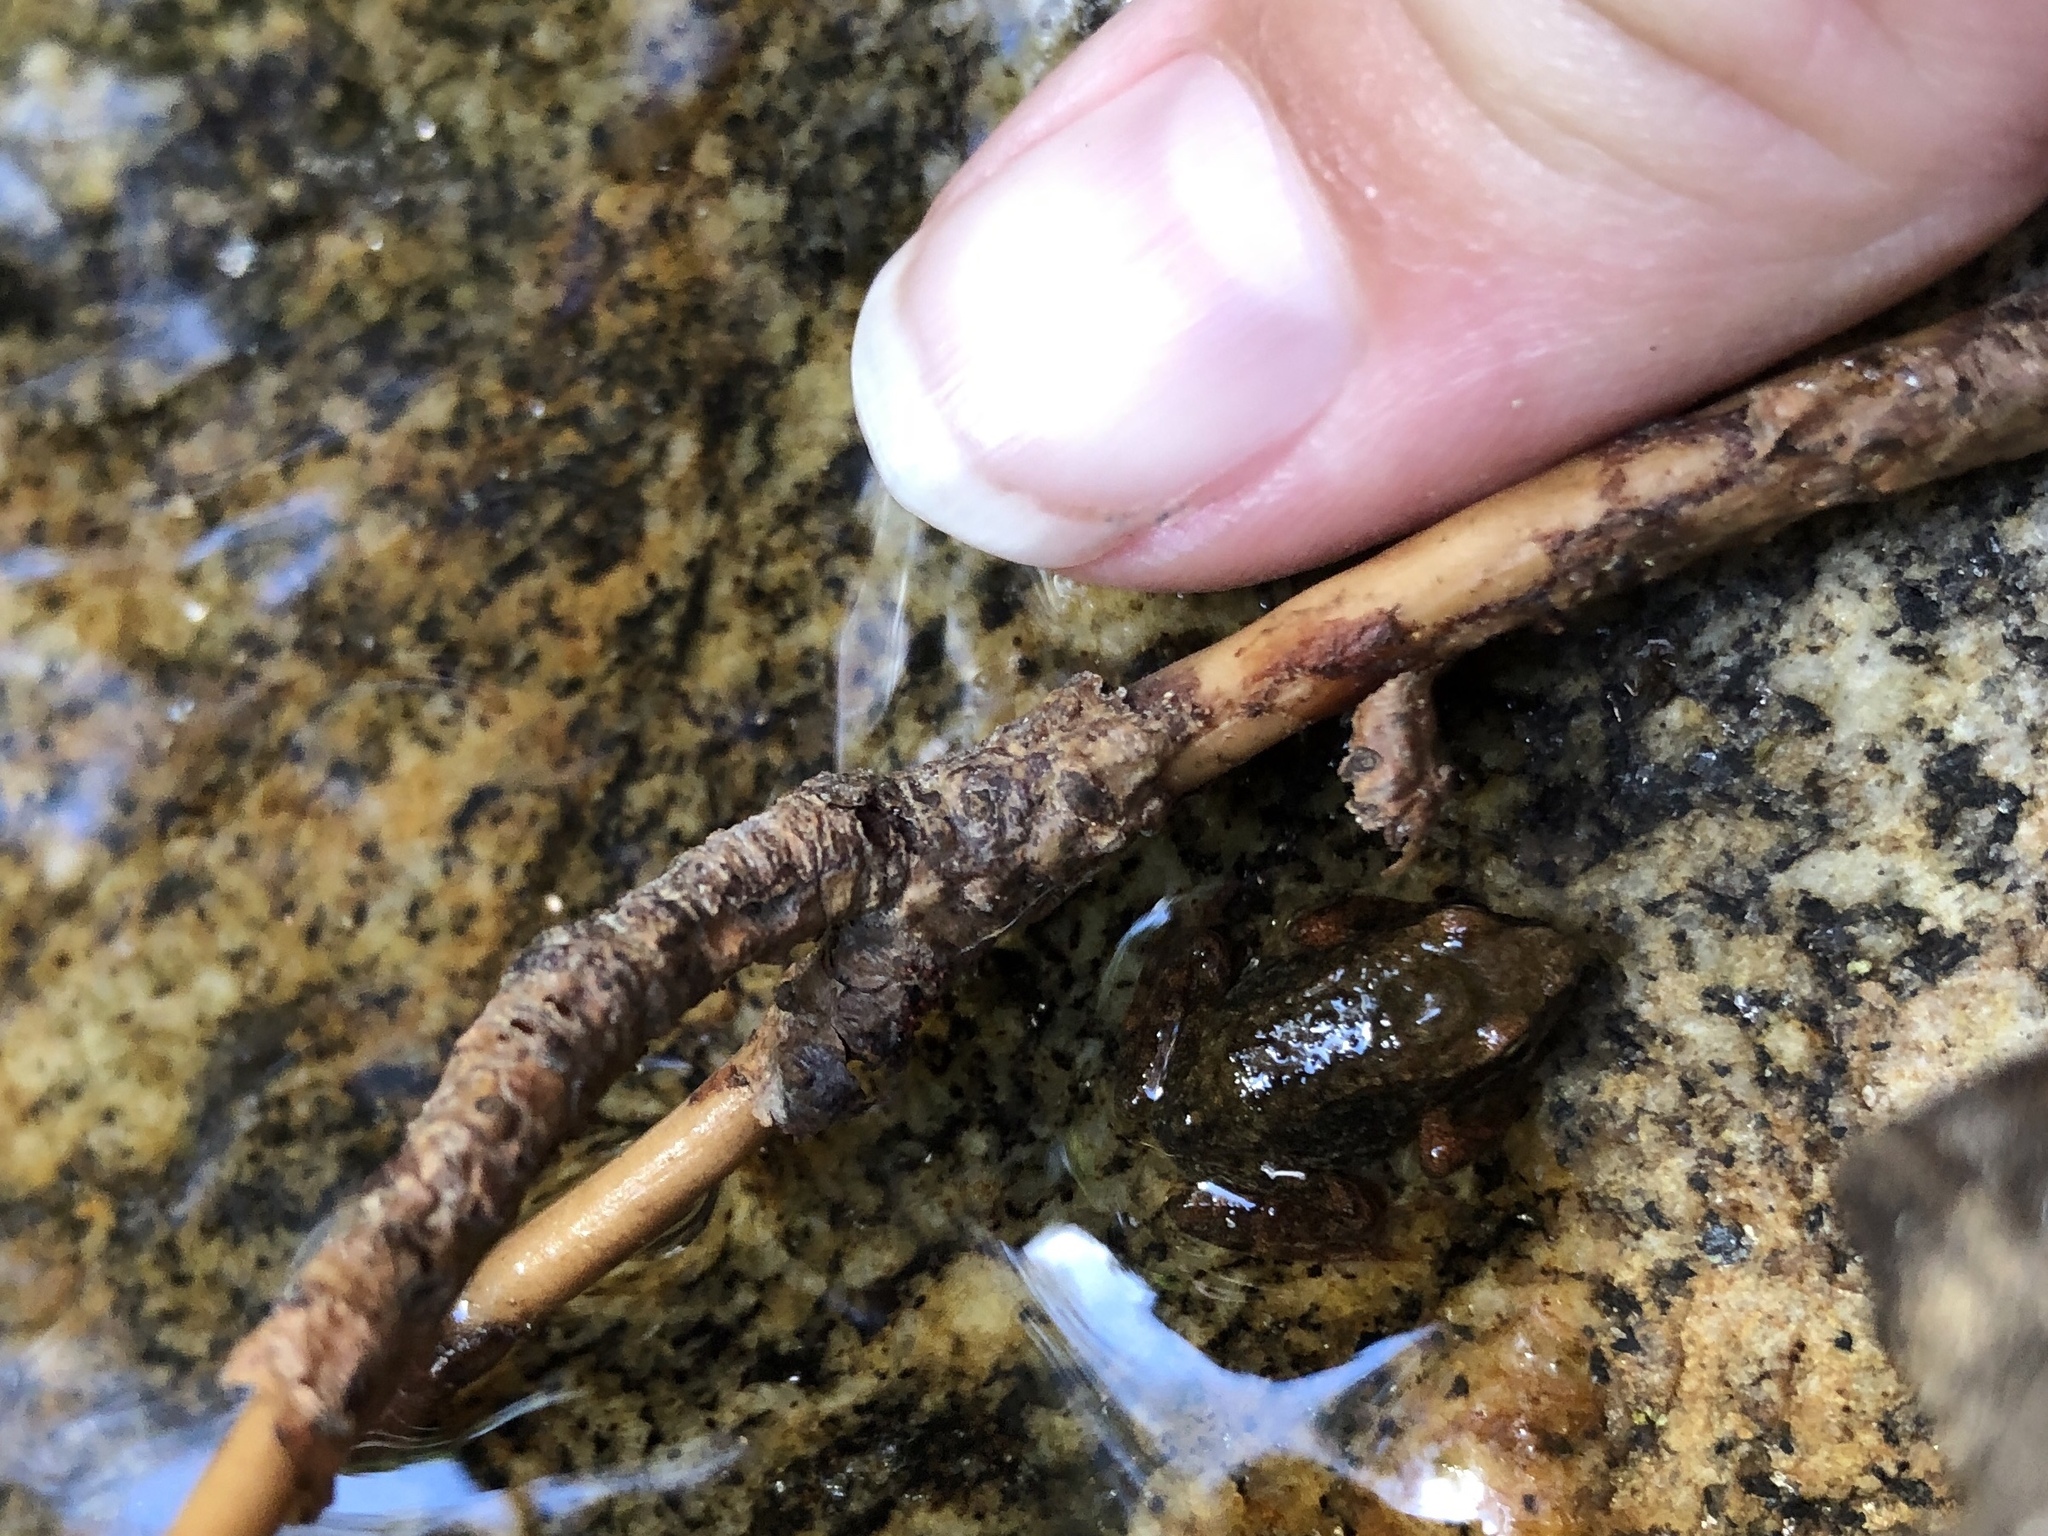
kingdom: Animalia
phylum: Chordata
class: Amphibia
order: Anura
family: Ranidae
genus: Rana
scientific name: Rana iberica
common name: Iberian frog
